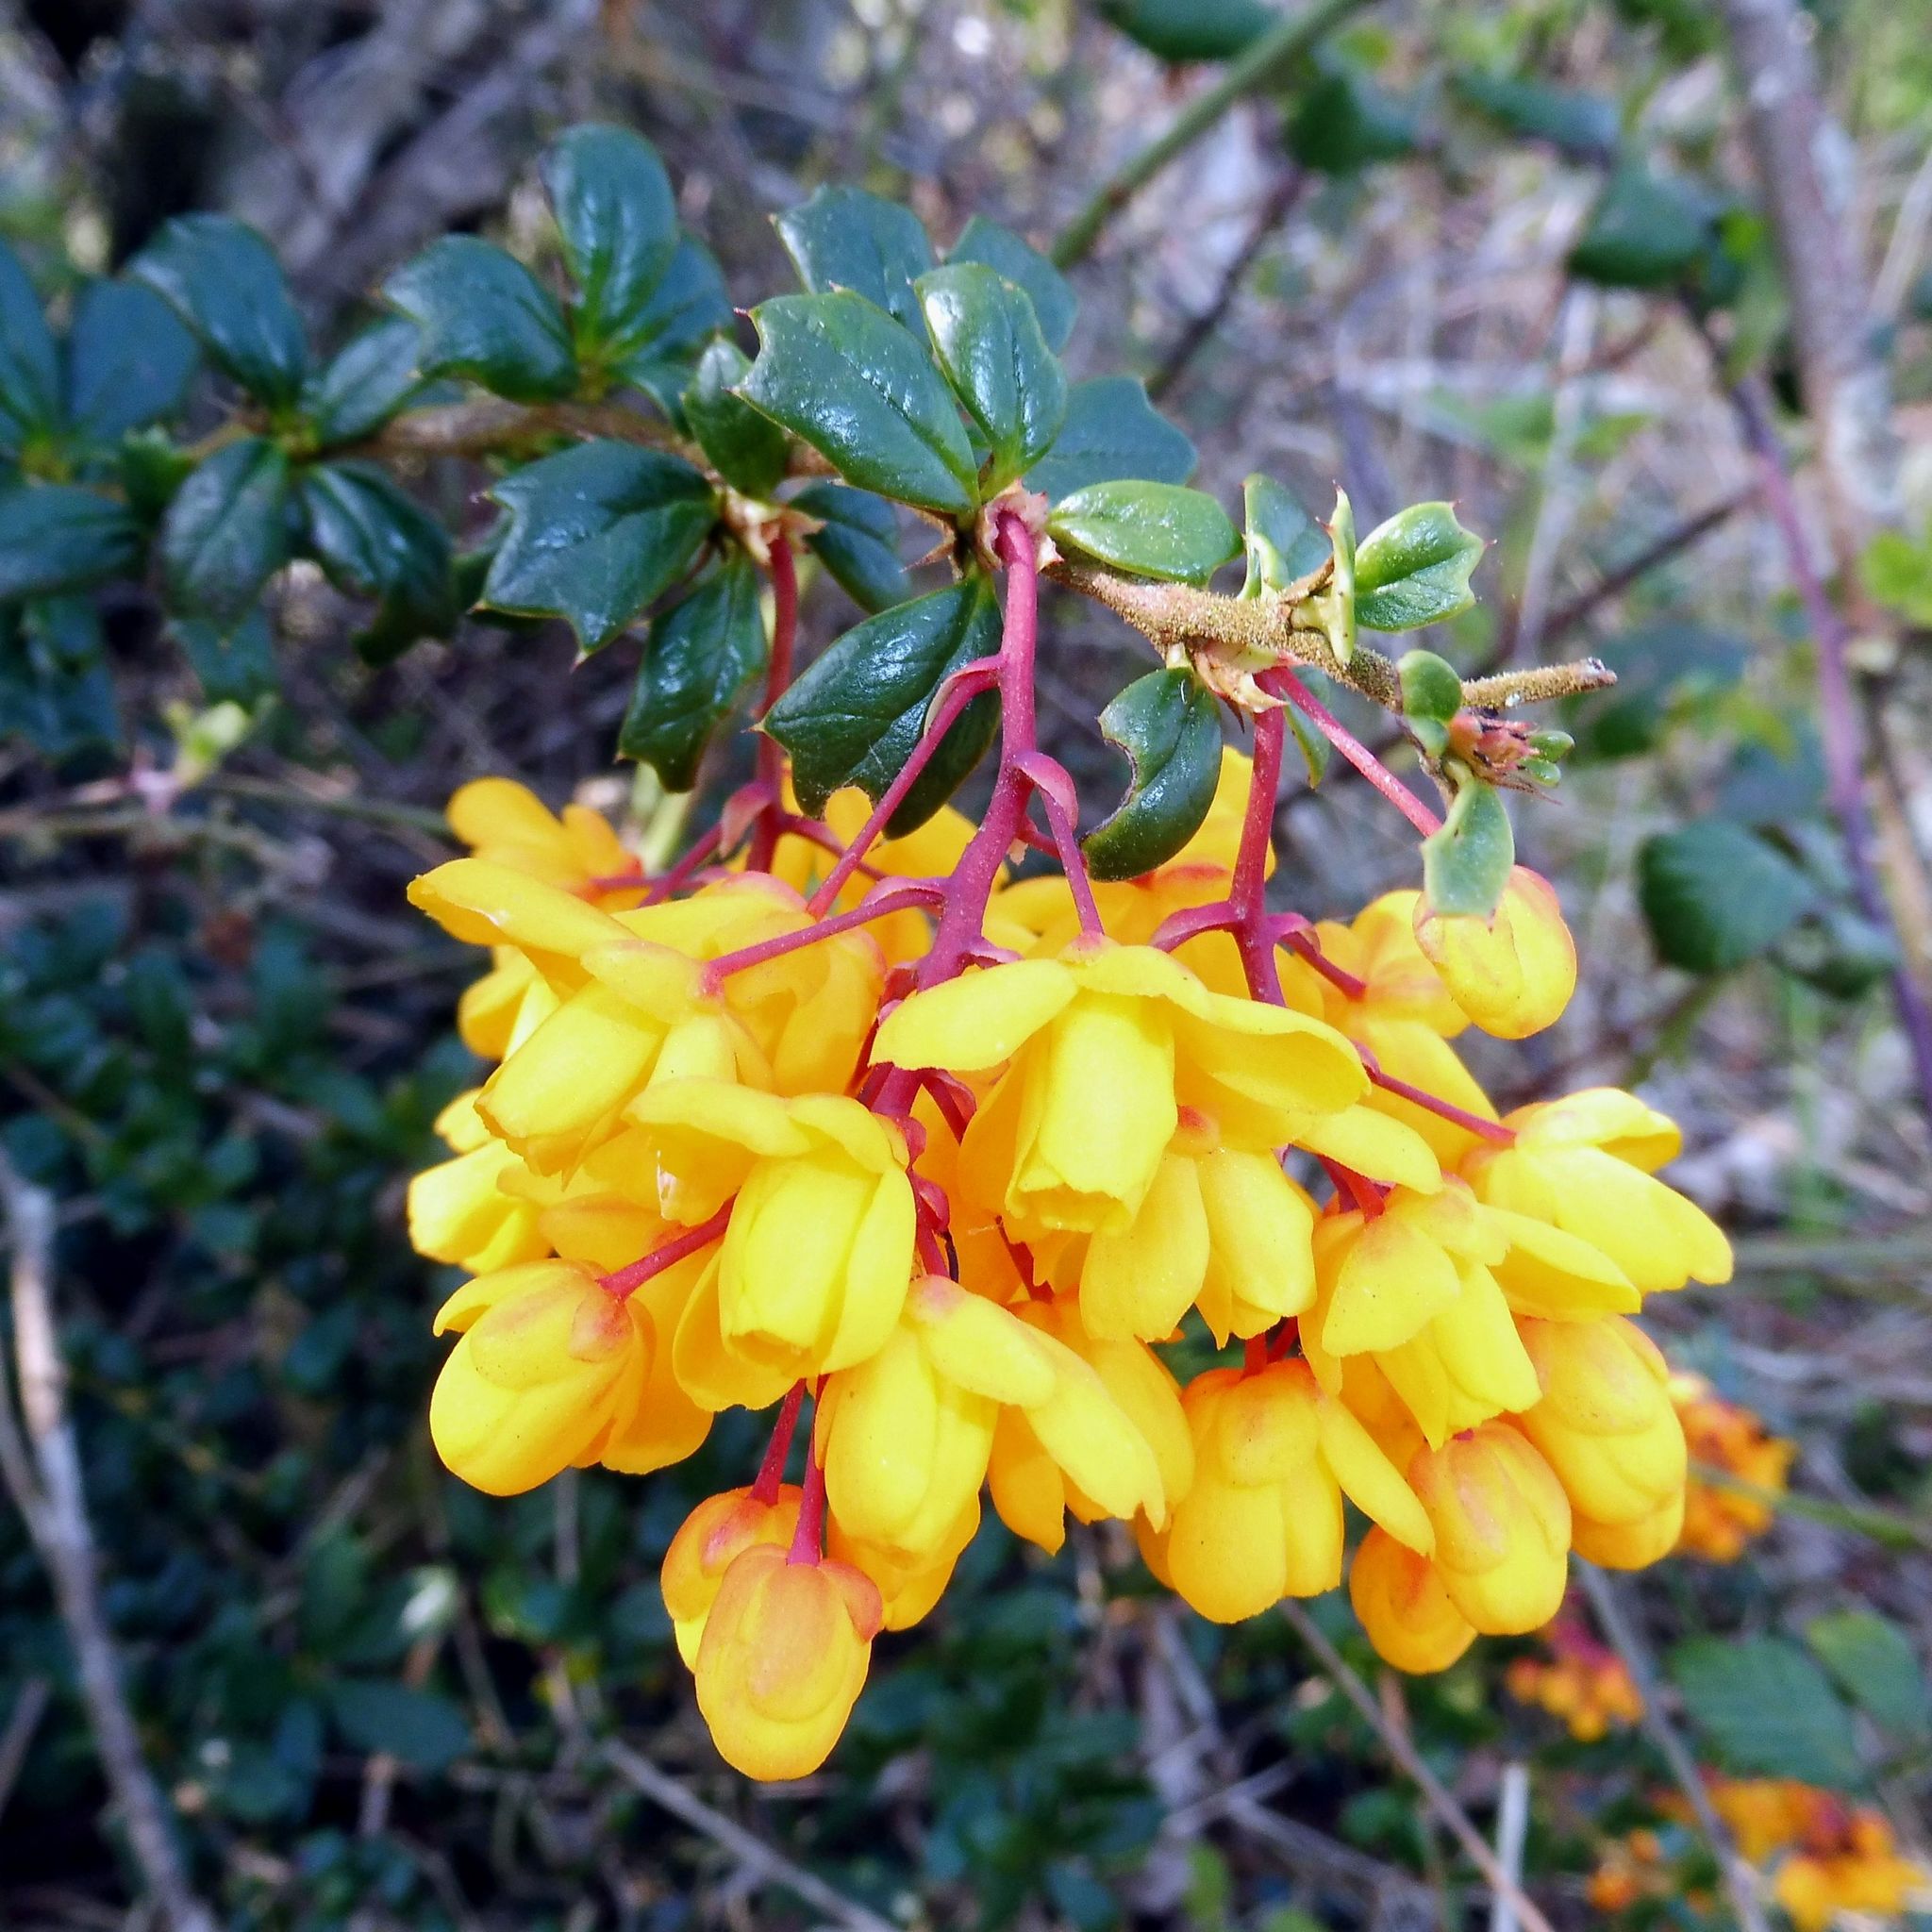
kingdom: Plantae
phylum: Tracheophyta
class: Magnoliopsida
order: Ranunculales
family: Berberidaceae
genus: Berberis
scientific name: Berberis darwinii
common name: Darwin's barberry
